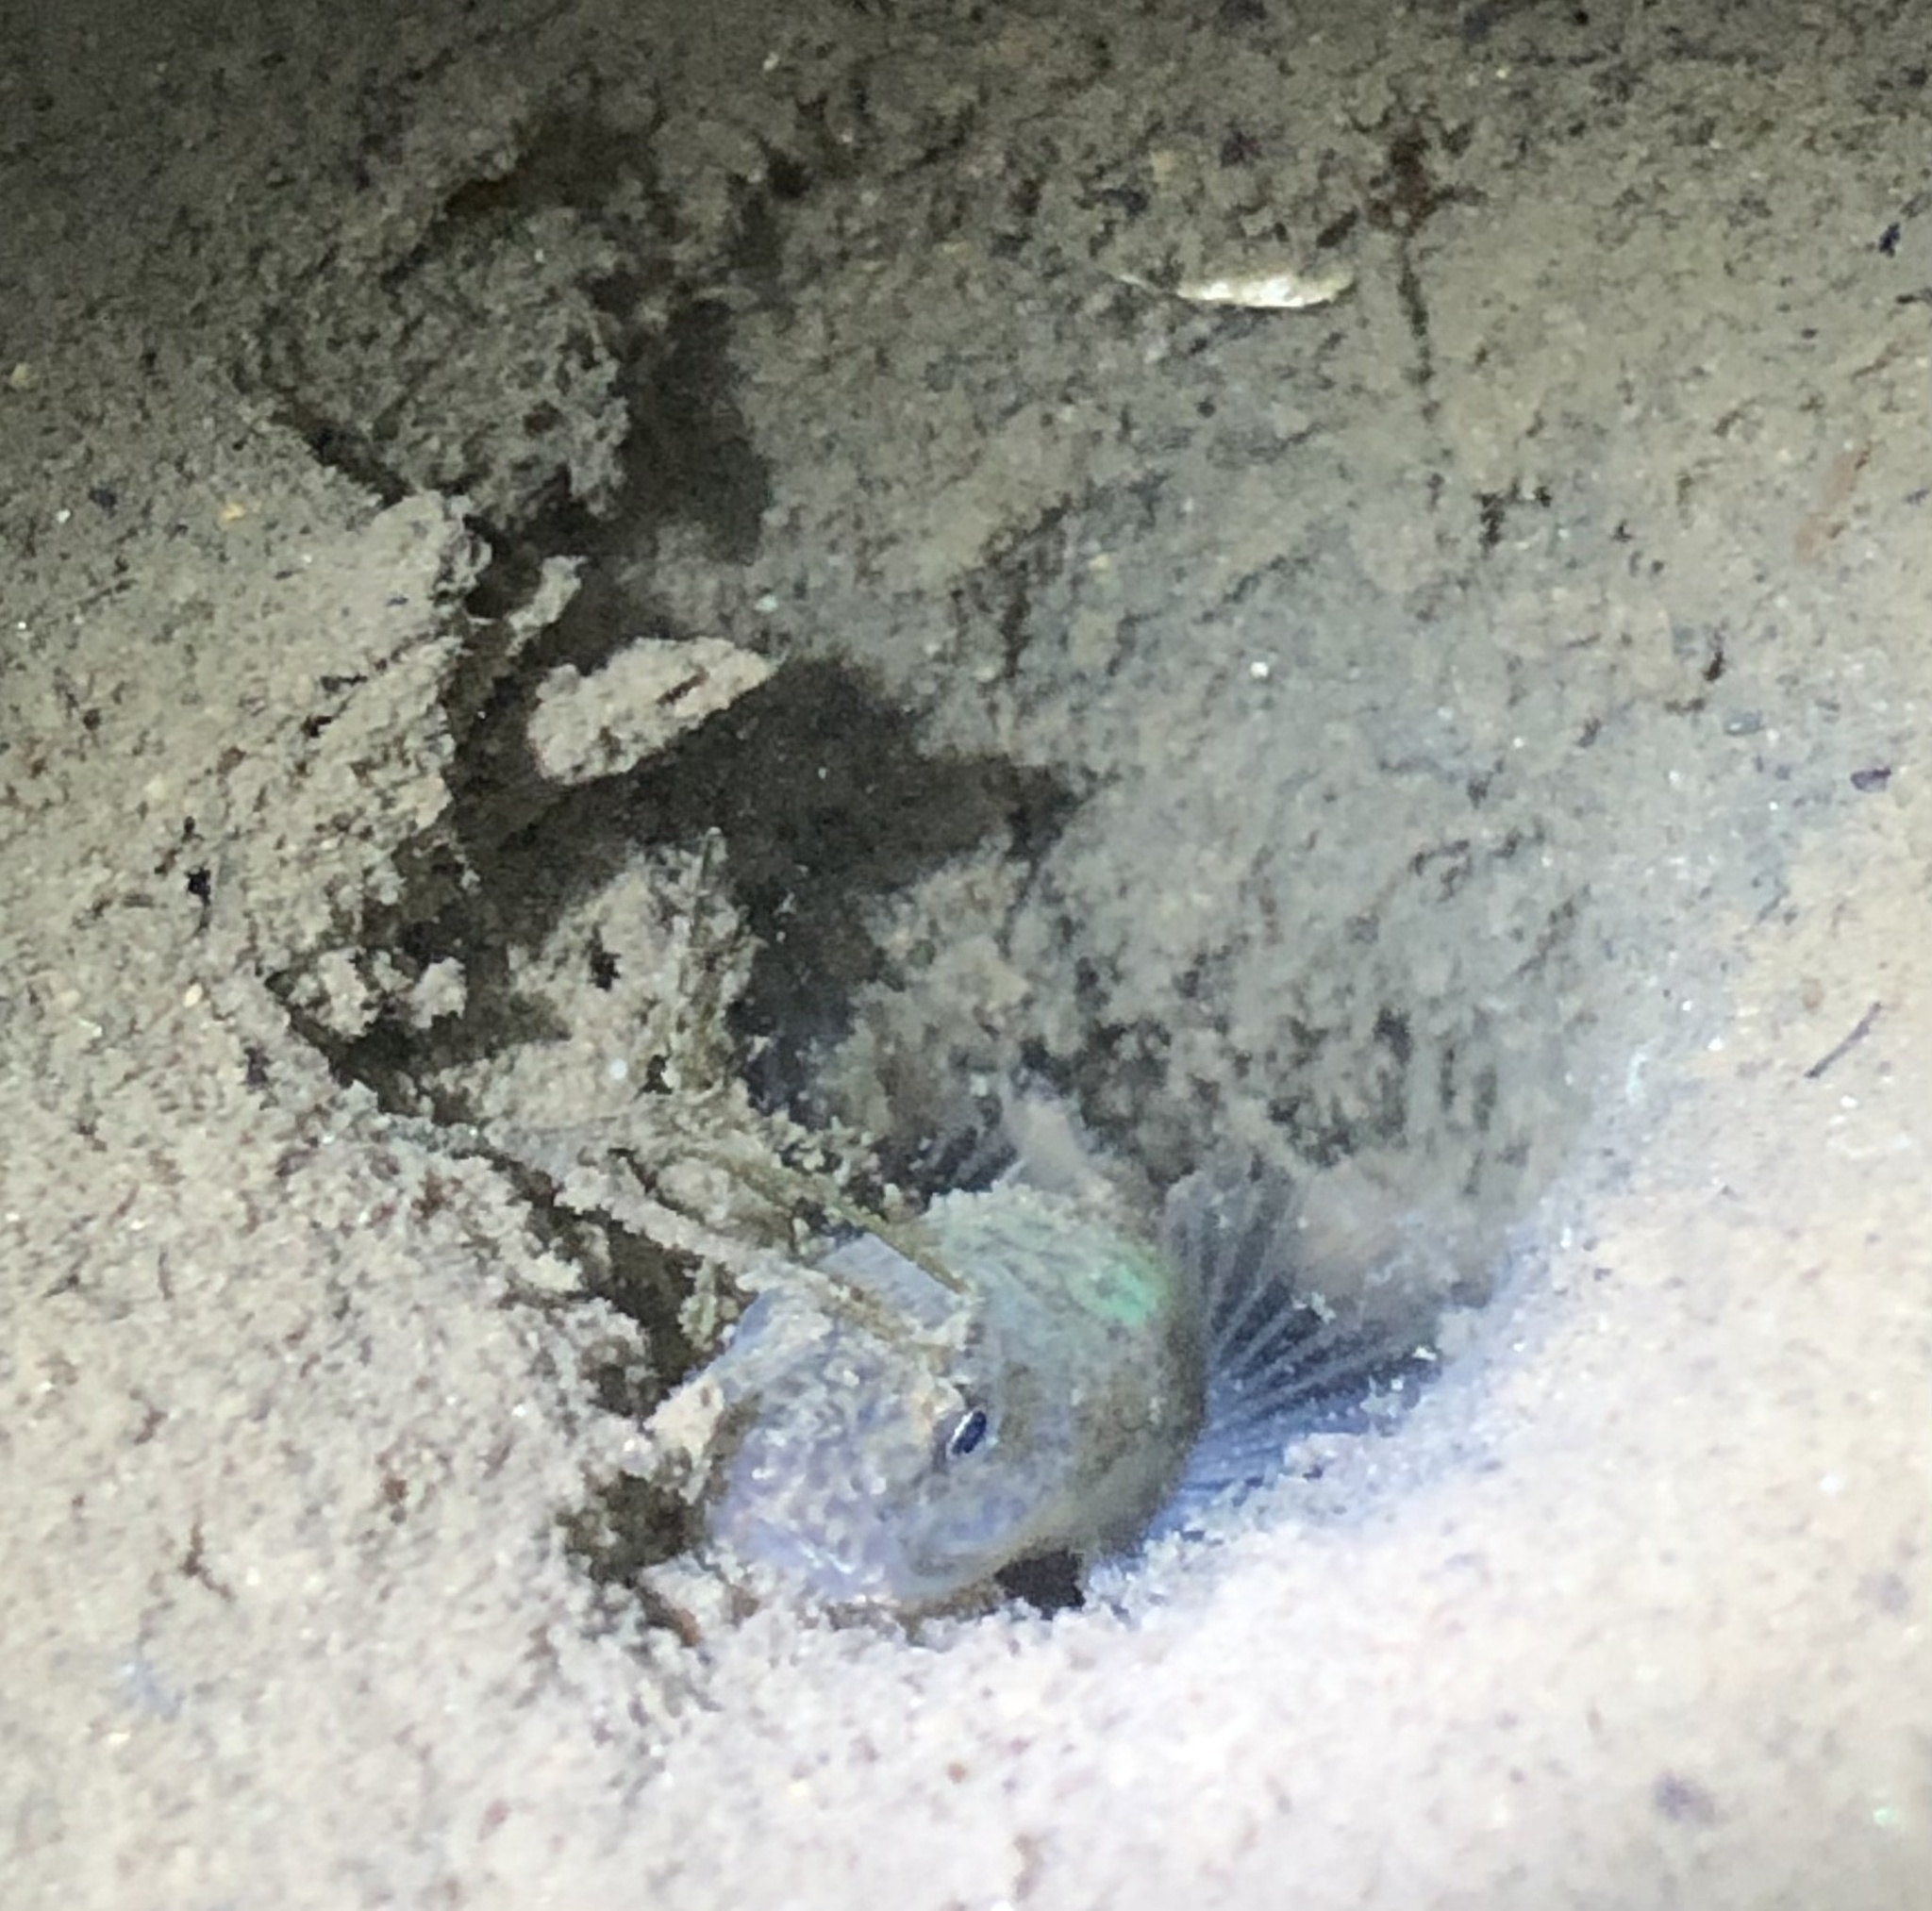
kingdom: Animalia
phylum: Chordata
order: Perciformes
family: Gobiidae
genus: Clevelandia
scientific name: Clevelandia ios
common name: Arrow goby
